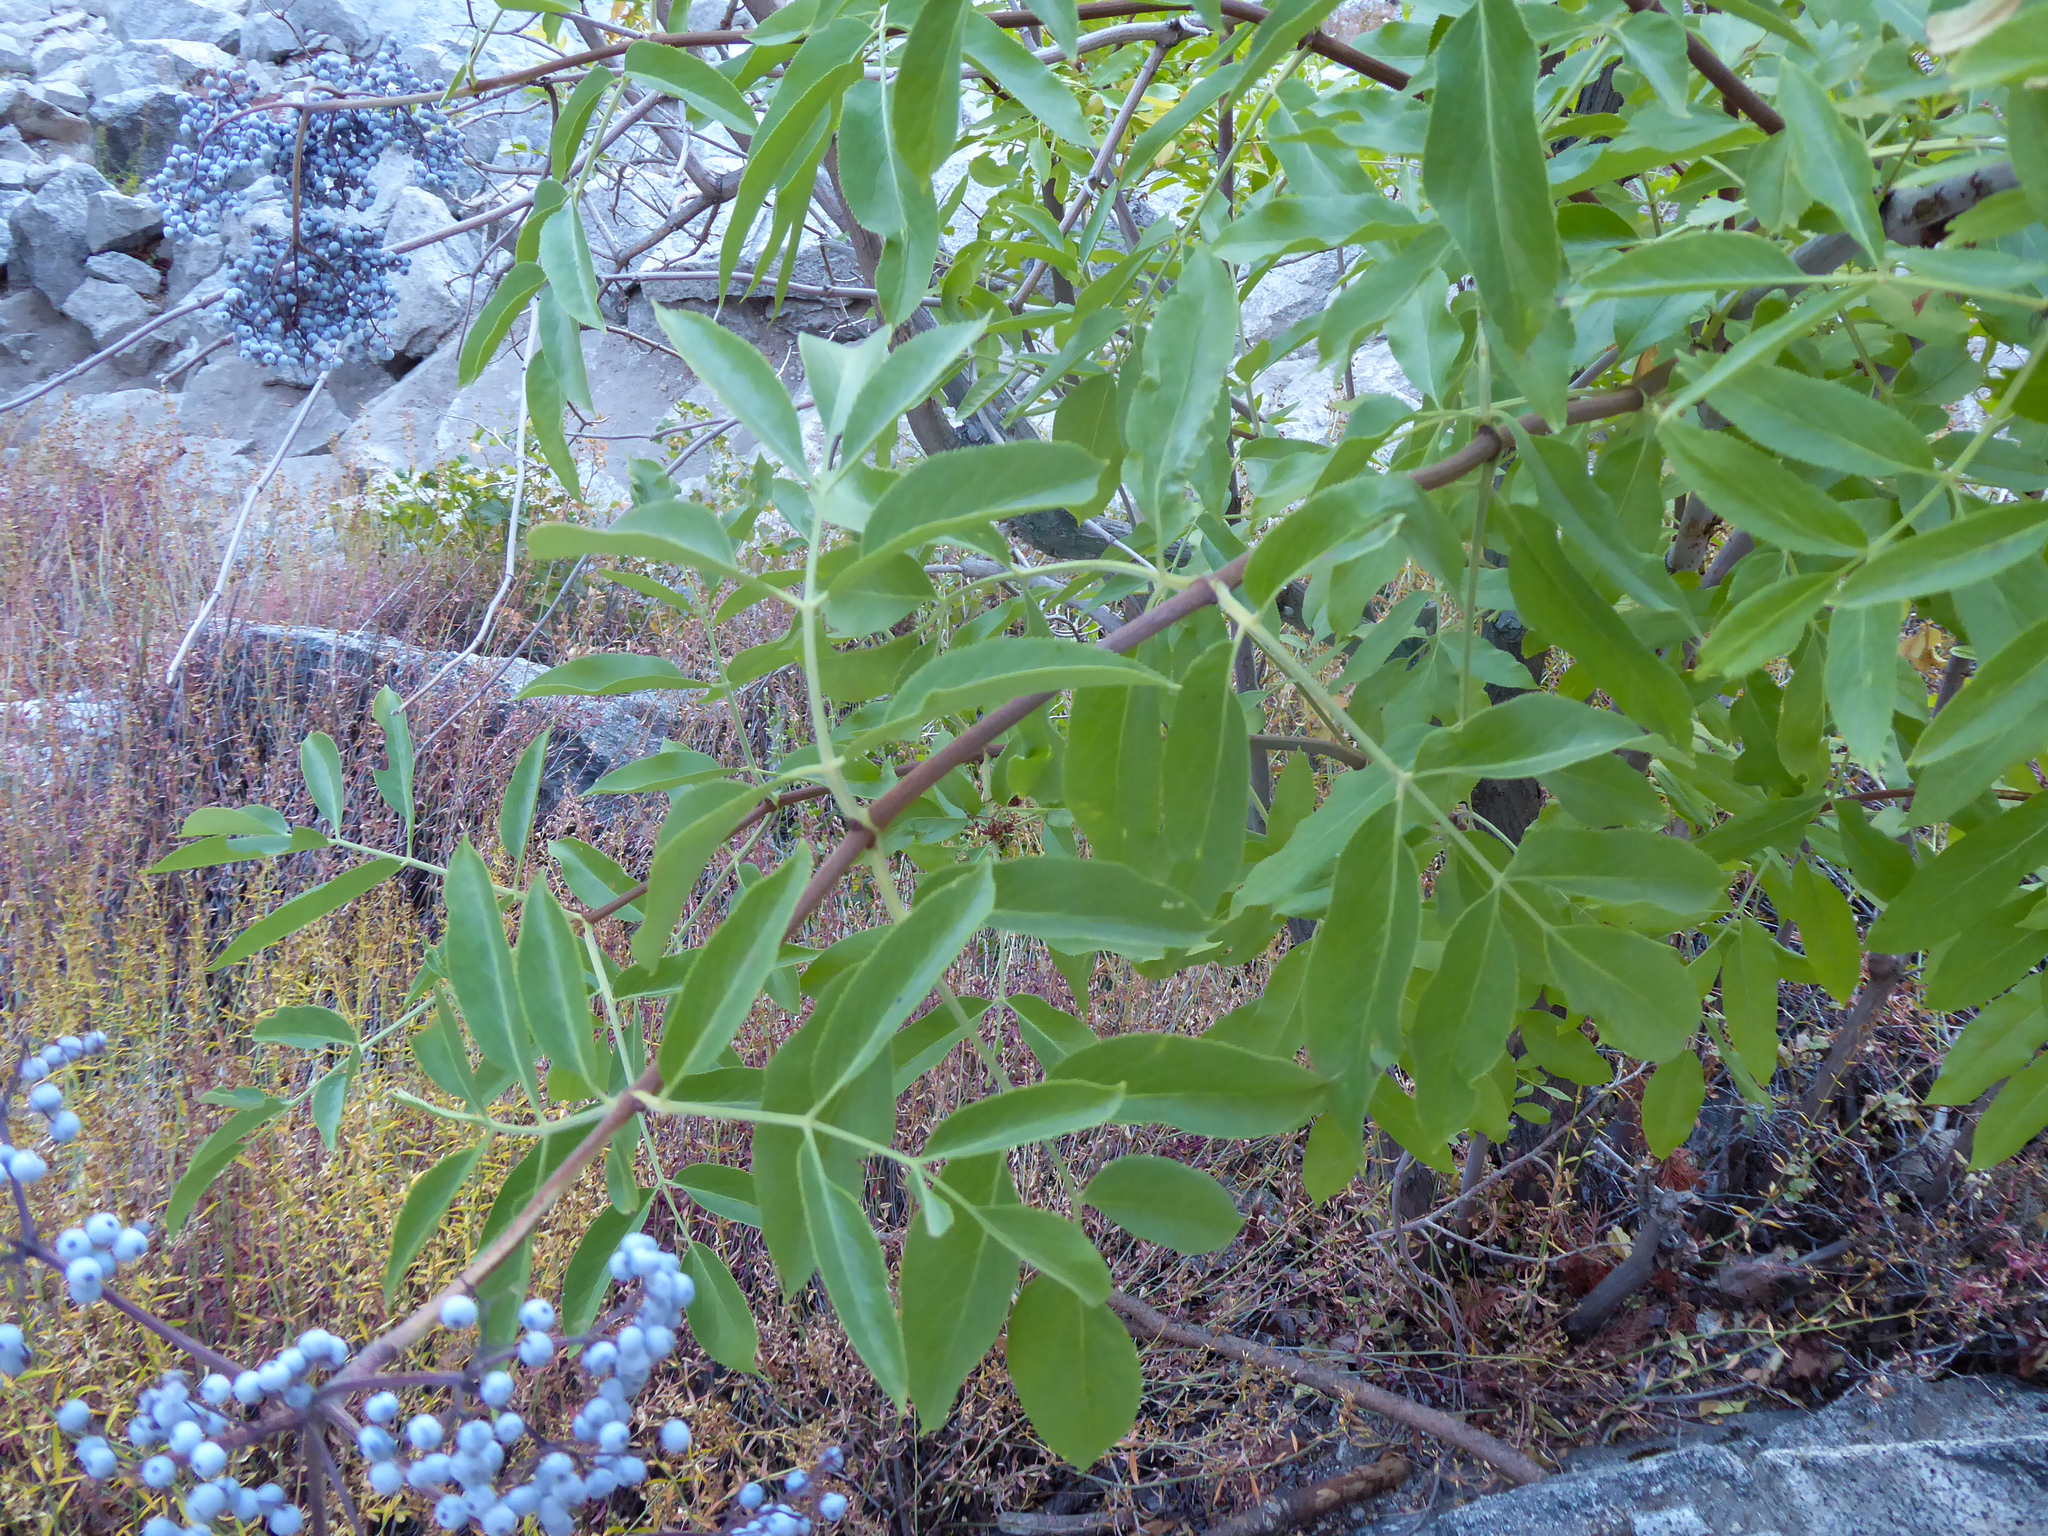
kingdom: Plantae
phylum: Tracheophyta
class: Magnoliopsida
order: Dipsacales
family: Viburnaceae
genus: Sambucus
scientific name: Sambucus cerulea
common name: Blue elder
